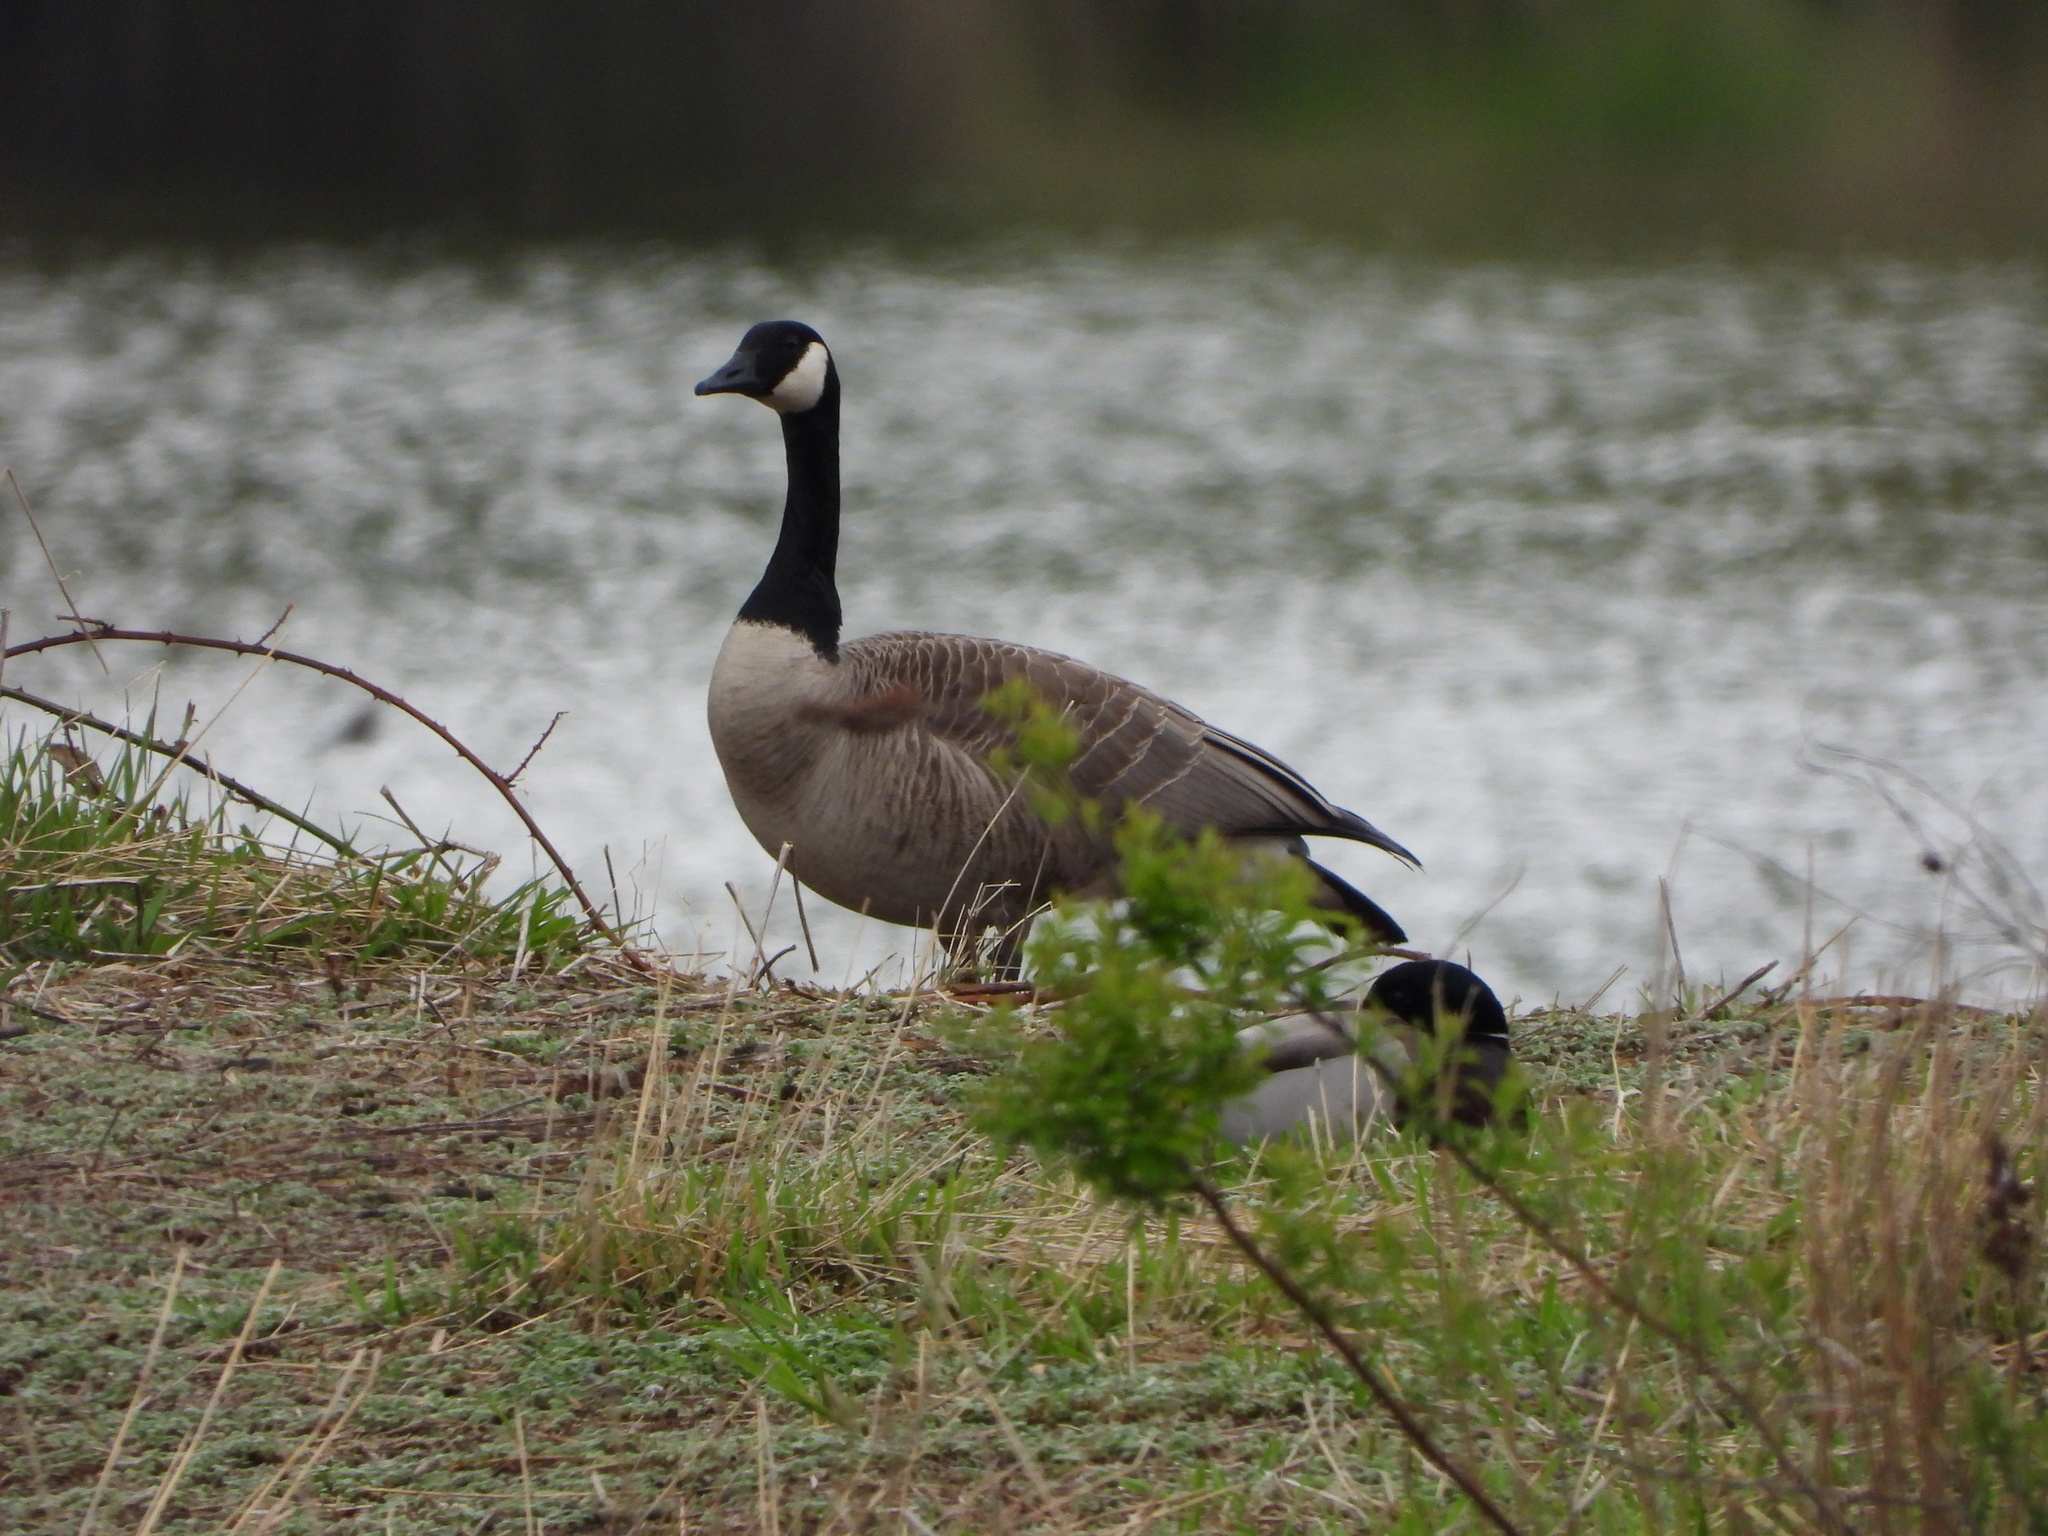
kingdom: Animalia
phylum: Chordata
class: Aves
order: Anseriformes
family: Anatidae
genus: Branta
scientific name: Branta canadensis
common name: Canada goose
